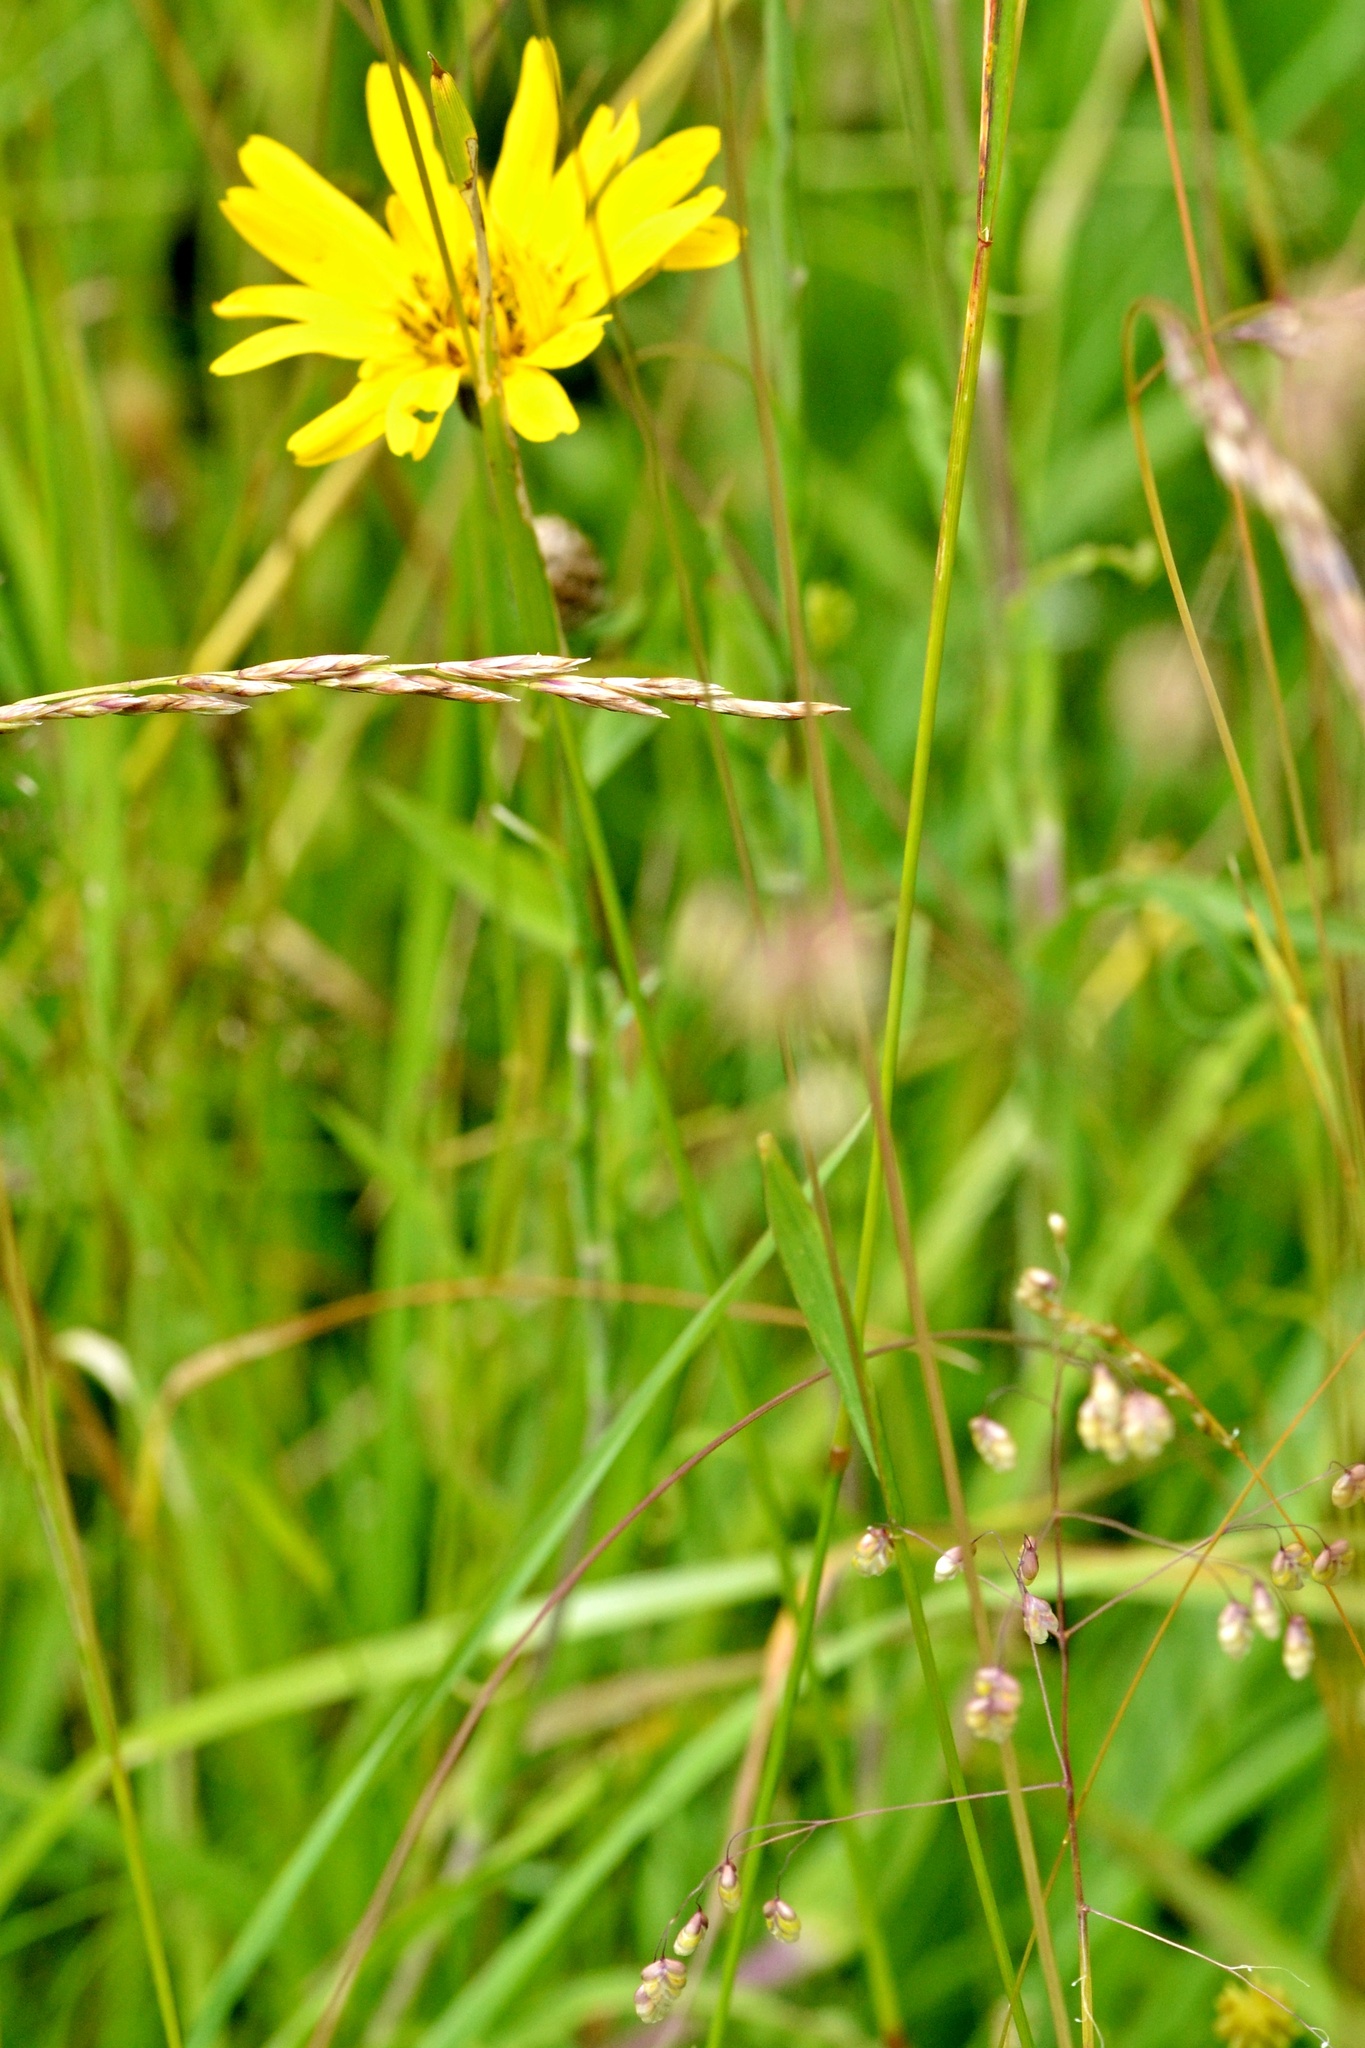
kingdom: Plantae
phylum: Tracheophyta
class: Magnoliopsida
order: Asterales
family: Asteraceae
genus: Tragopogon
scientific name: Tragopogon orientalis
